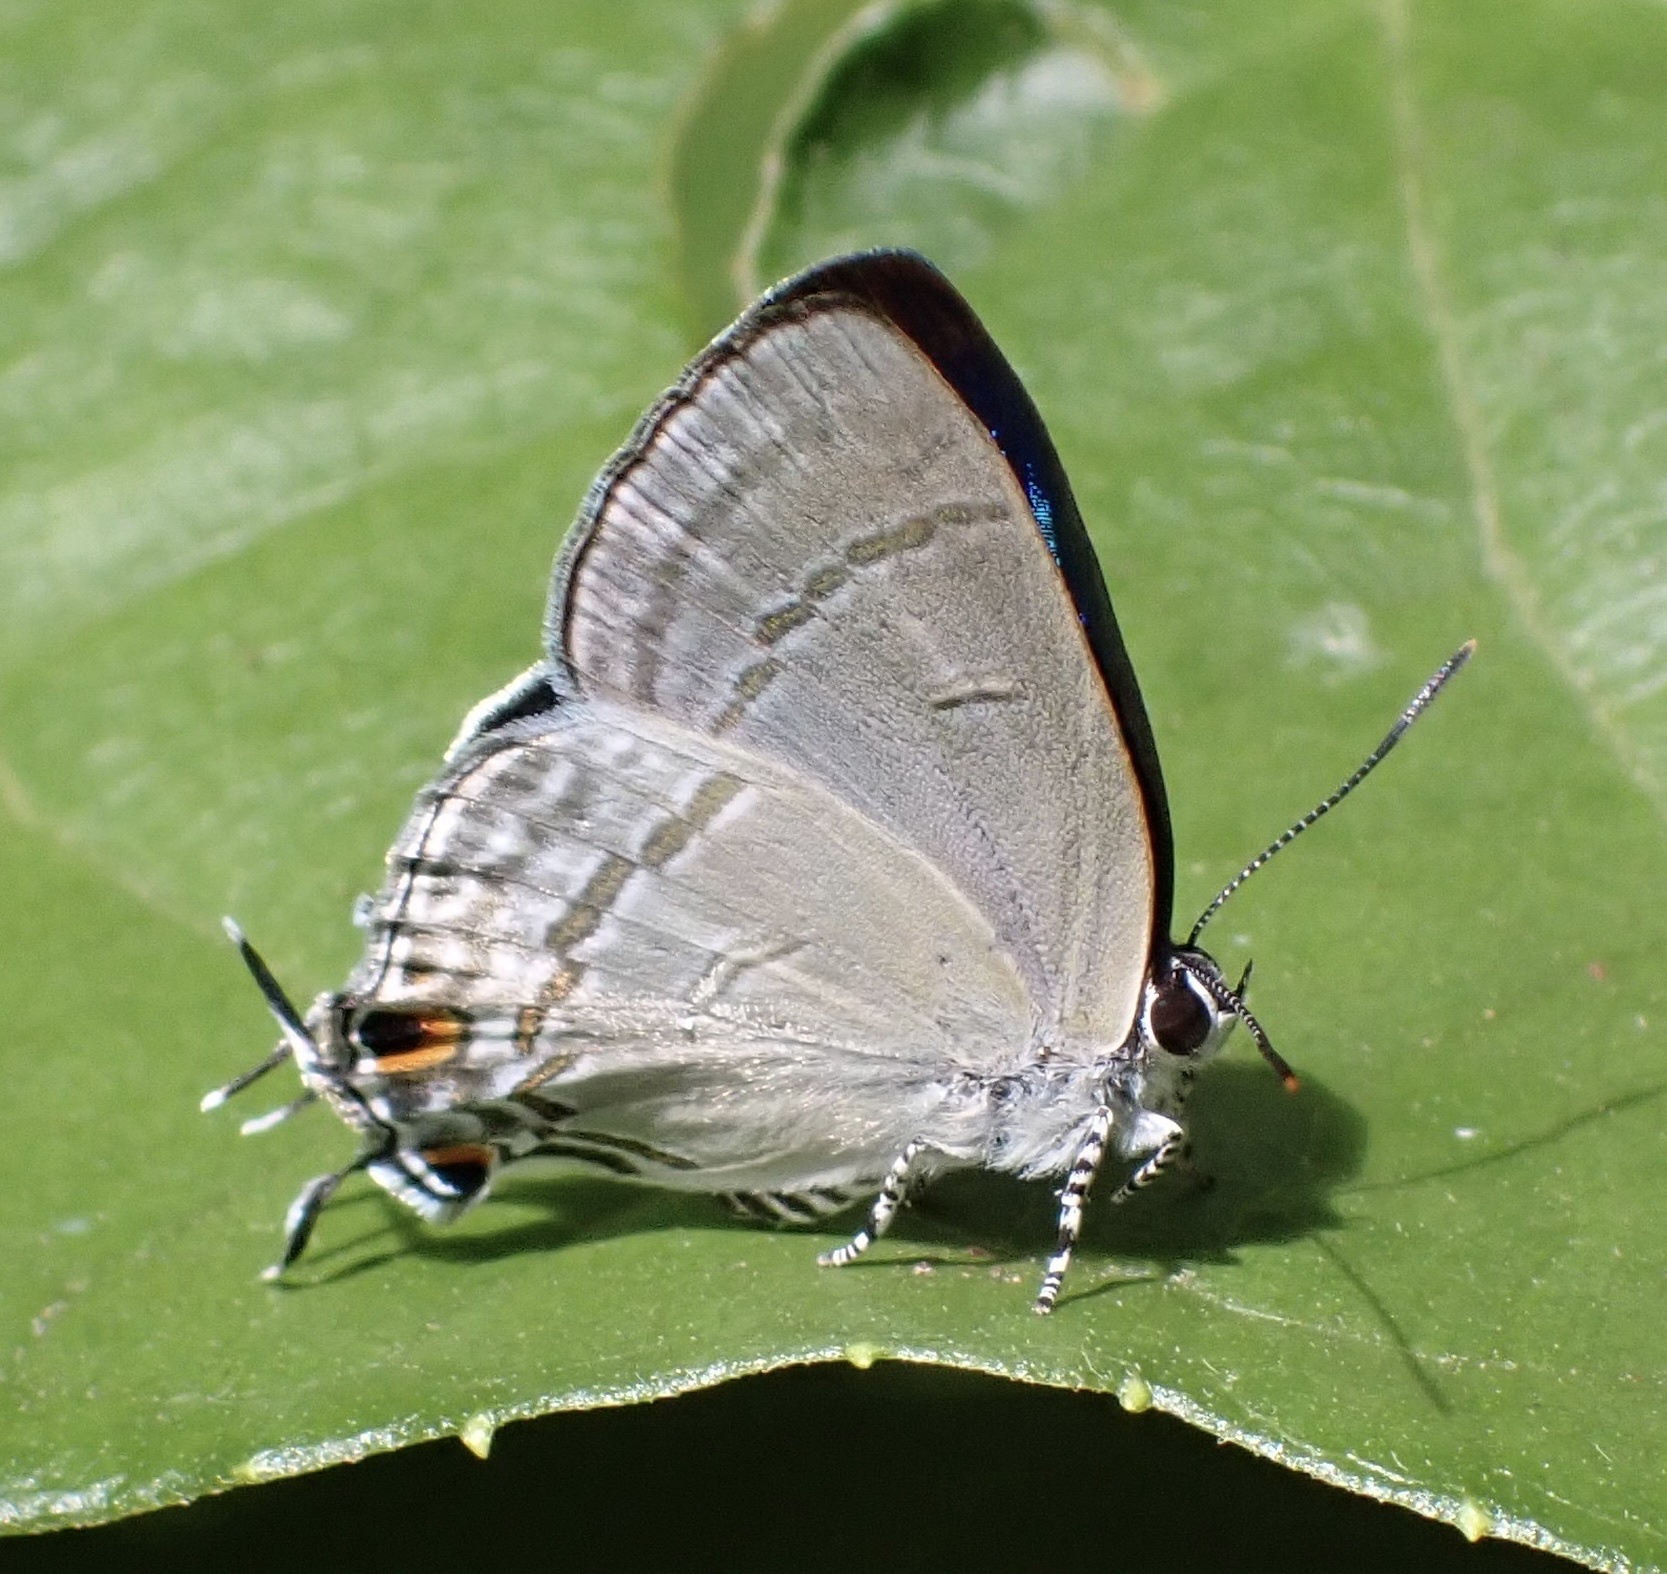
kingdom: Animalia
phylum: Arthropoda
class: Insecta
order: Lepidoptera
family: Lycaenidae
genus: Hypolycaena
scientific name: Hypolycaena phorbas
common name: Black-spotted flash
